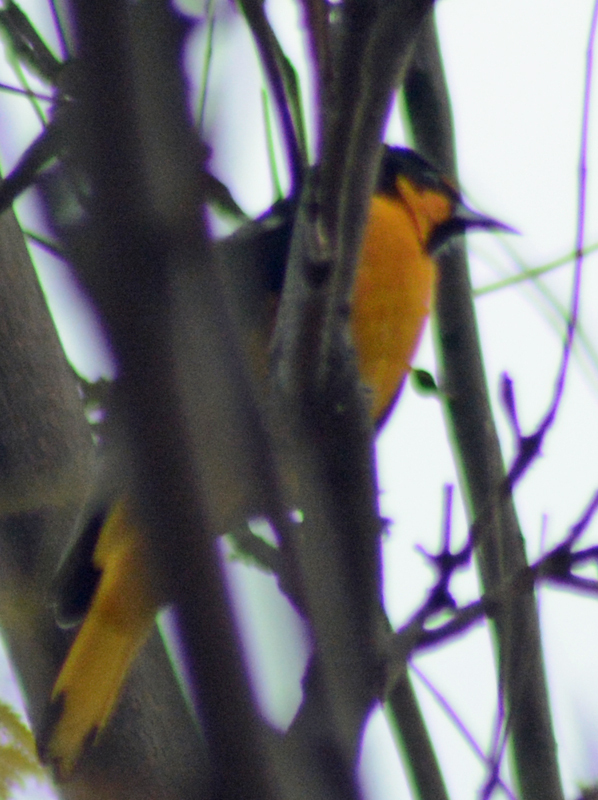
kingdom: Animalia
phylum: Chordata
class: Aves
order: Passeriformes
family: Icteridae
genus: Icterus
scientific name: Icterus abeillei
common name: Black-backed oriole
